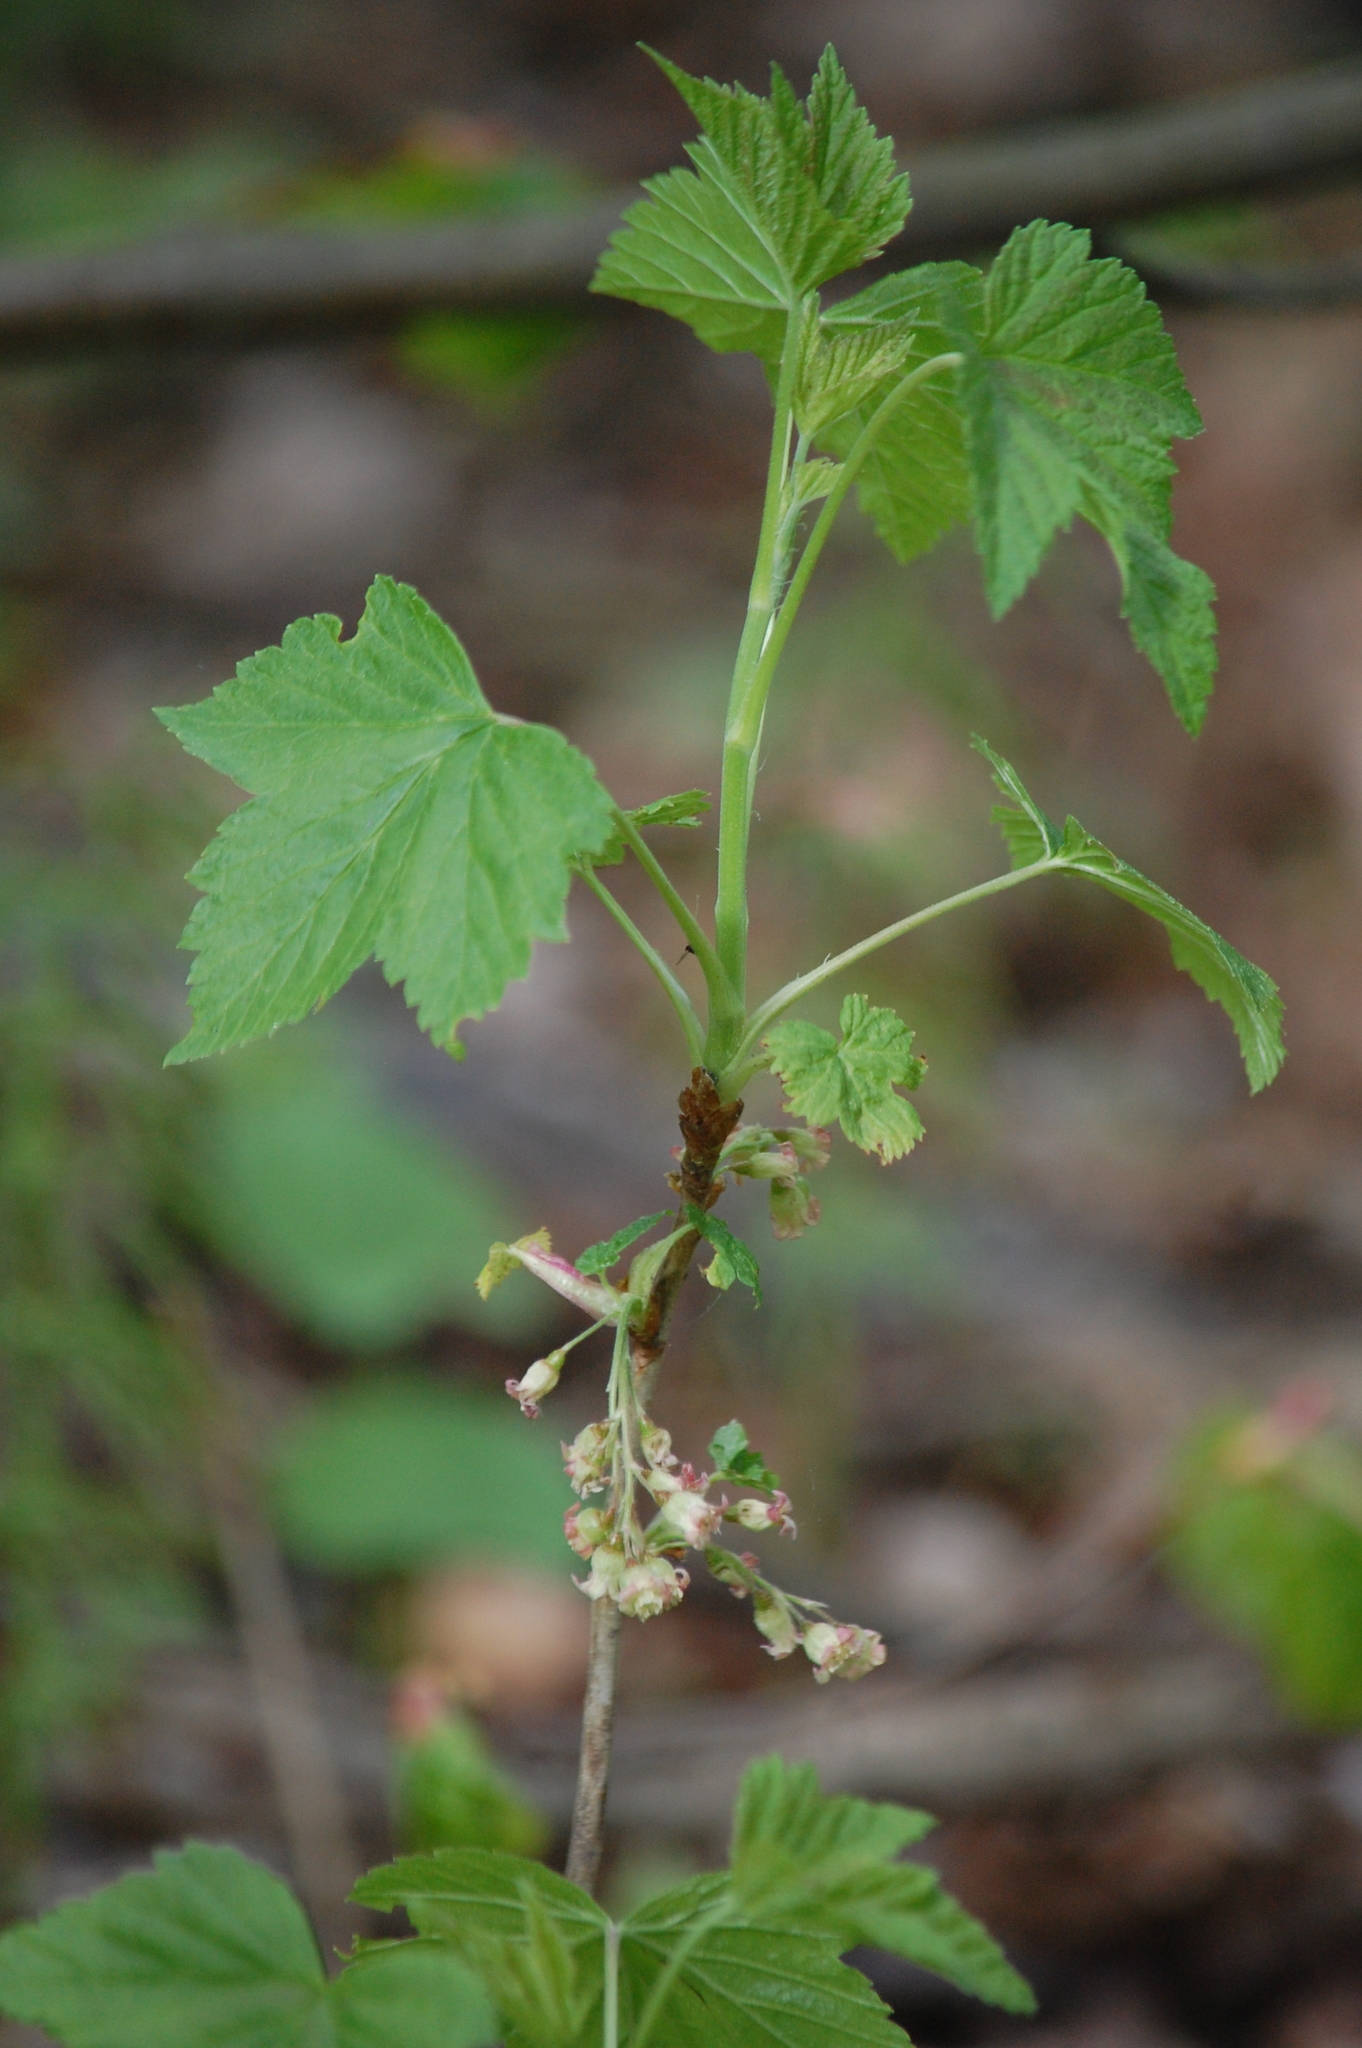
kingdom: Plantae
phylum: Tracheophyta
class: Magnoliopsida
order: Saxifragales
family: Grossulariaceae
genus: Ribes
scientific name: Ribes nigrum
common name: Black currant
